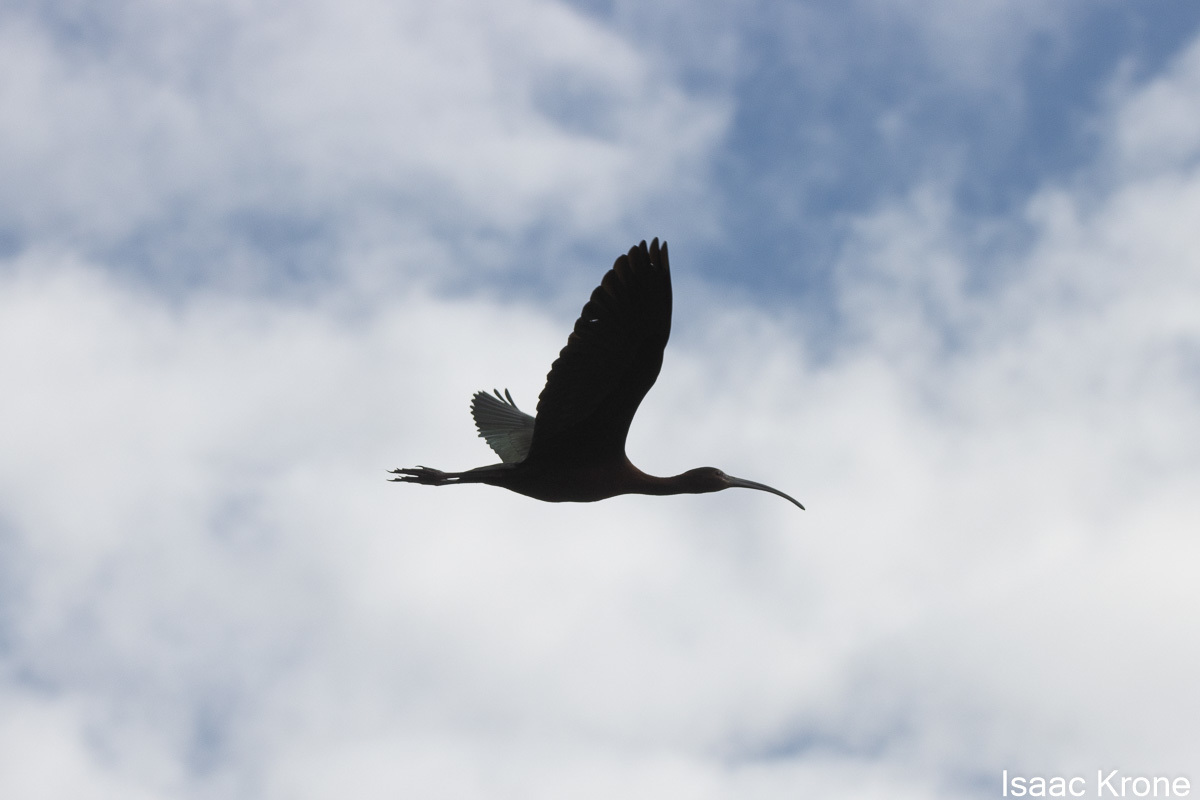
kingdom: Animalia
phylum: Chordata
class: Aves
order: Pelecaniformes
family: Threskiornithidae
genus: Plegadis
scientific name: Plegadis chihi
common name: White-faced ibis
